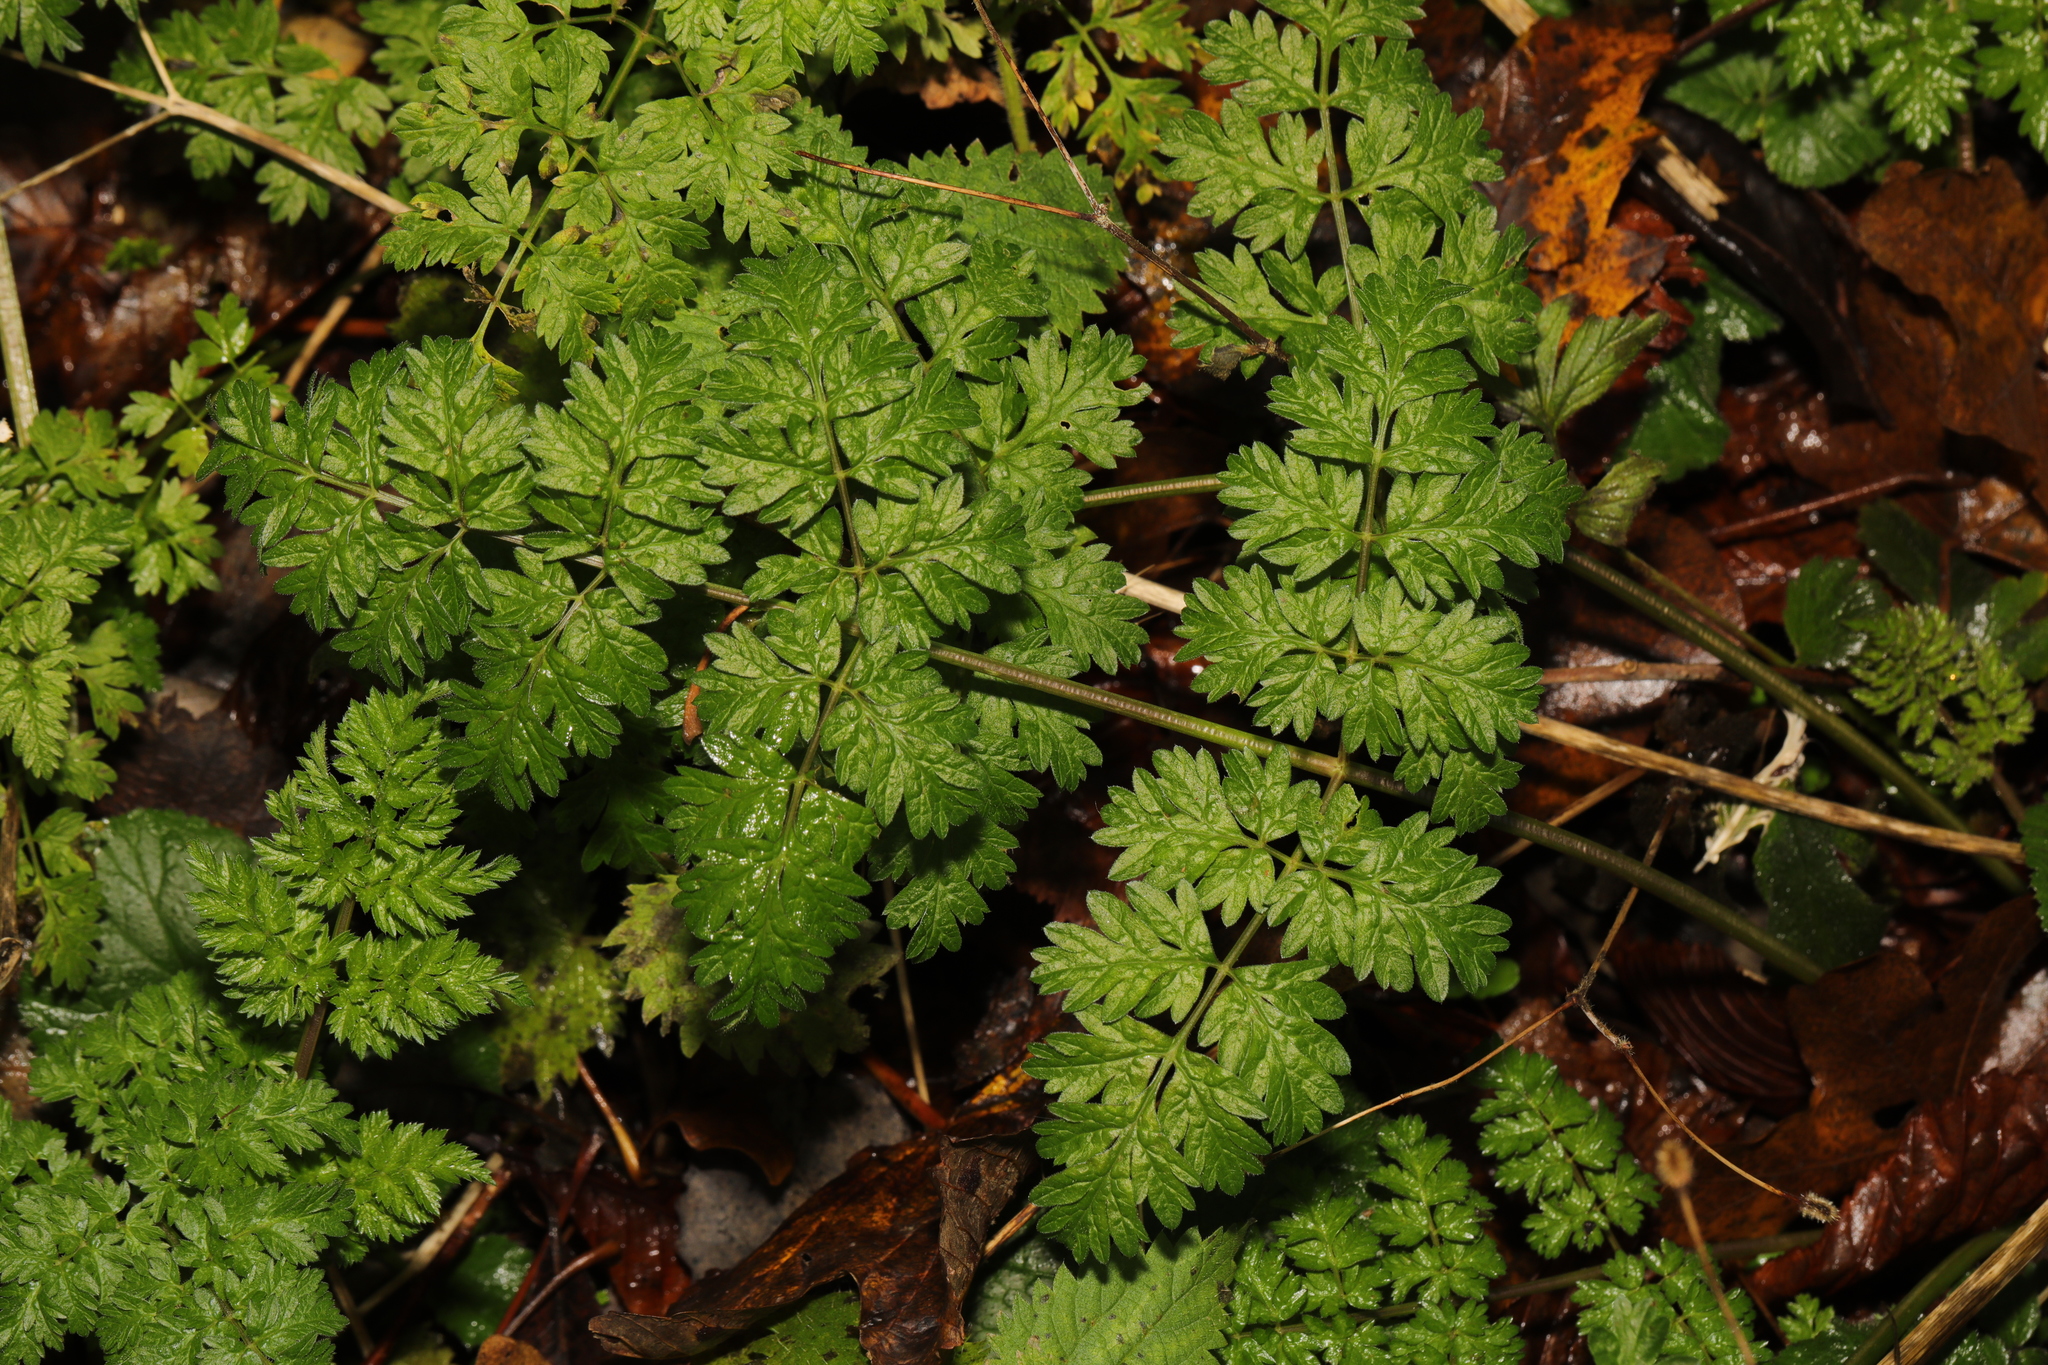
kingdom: Plantae
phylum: Tracheophyta
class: Magnoliopsida
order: Apiales
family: Apiaceae
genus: Anthriscus
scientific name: Anthriscus sylvestris
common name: Cow parsley
